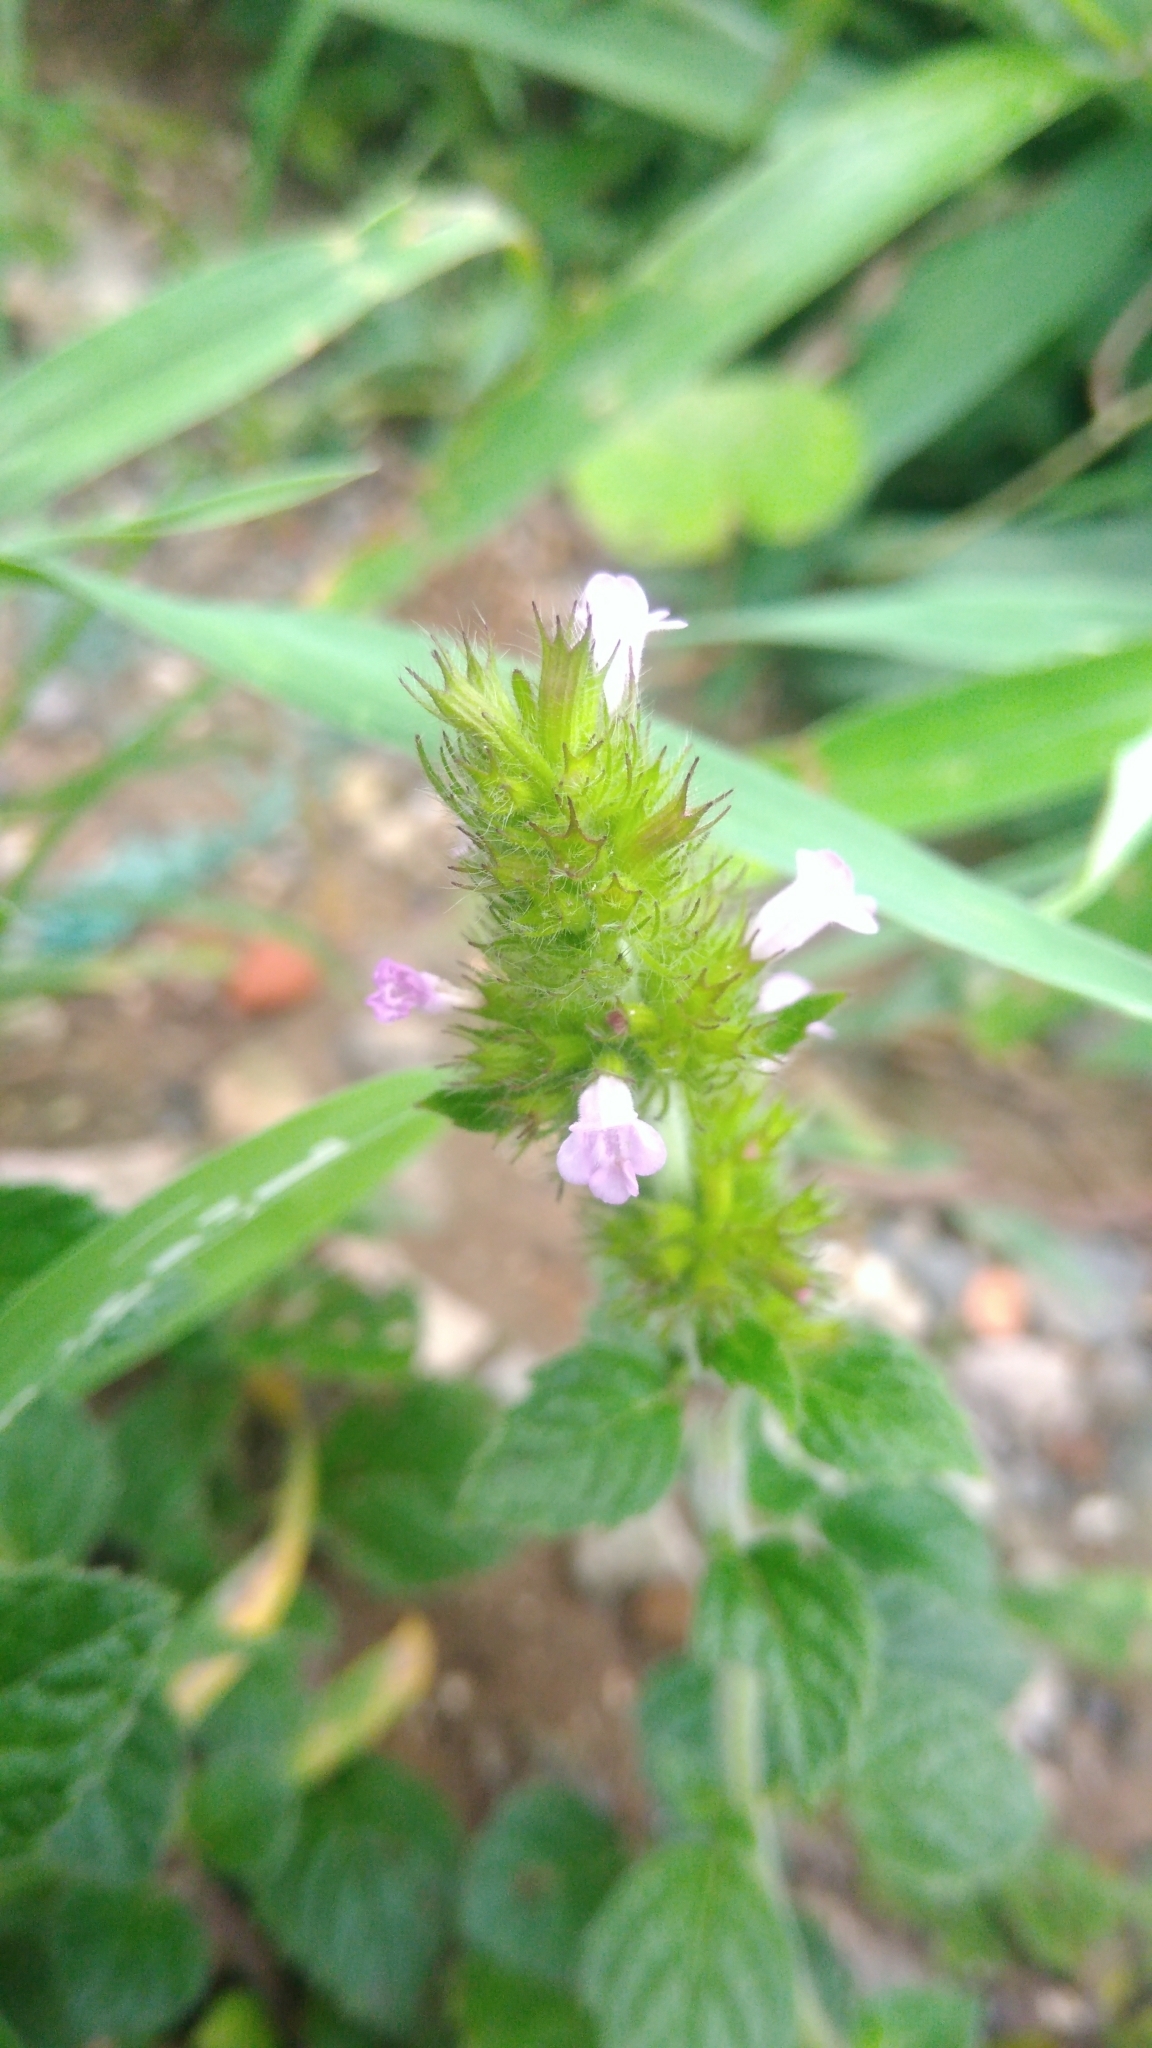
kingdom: Plantae
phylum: Tracheophyta
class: Magnoliopsida
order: Lamiales
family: Lamiaceae
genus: Clinopodium
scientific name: Clinopodium chinense
